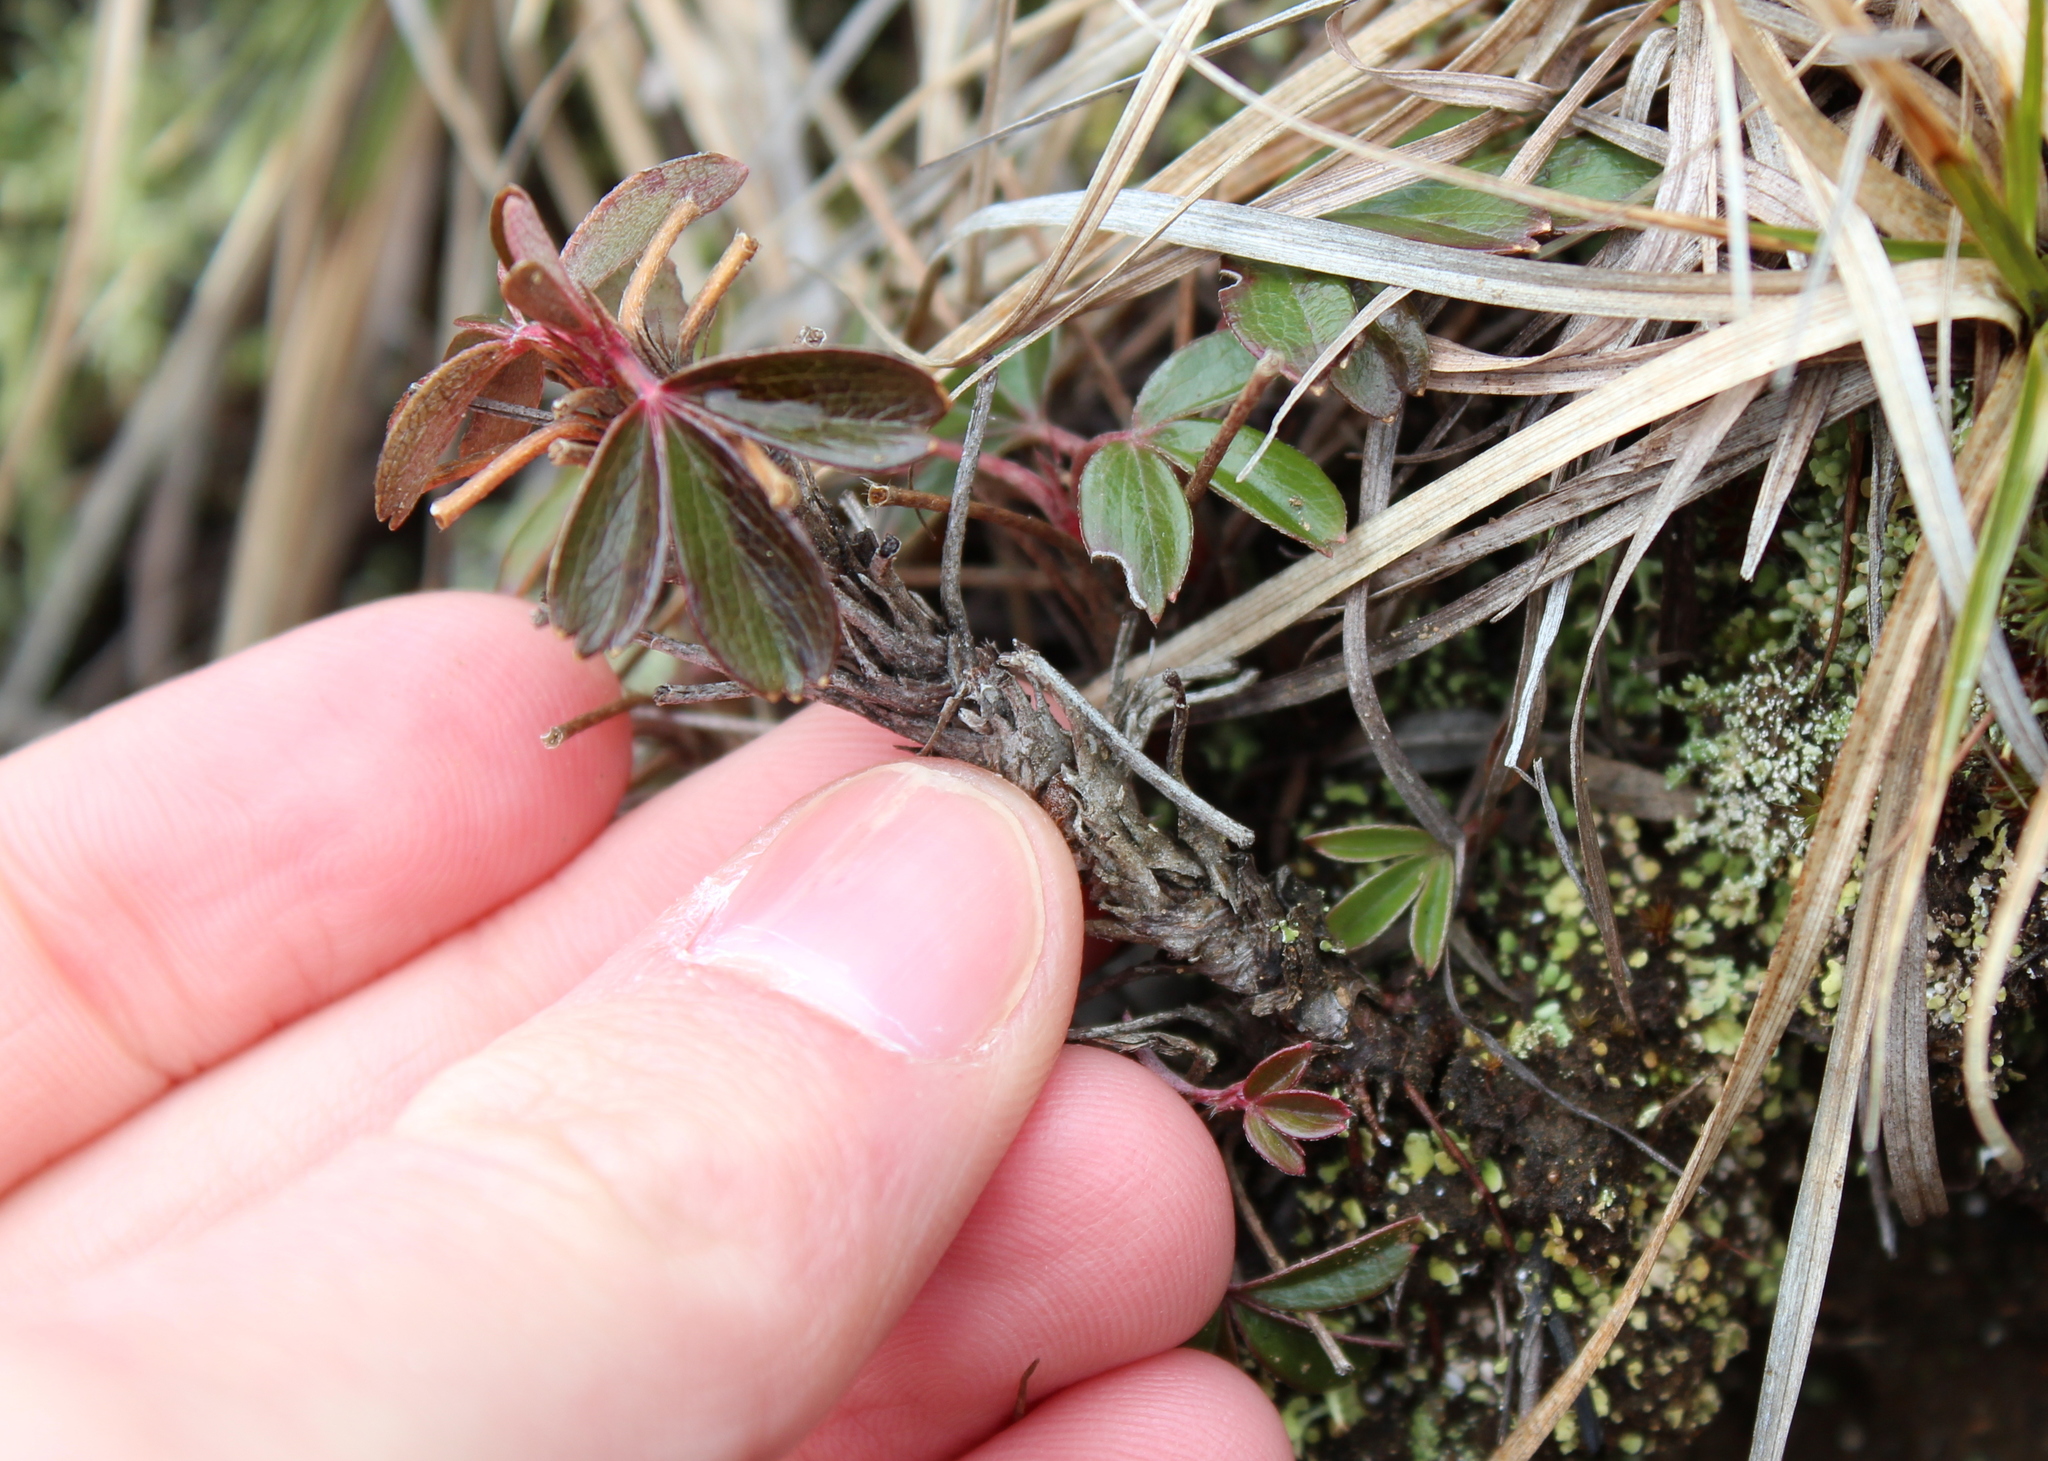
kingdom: Plantae
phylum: Tracheophyta
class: Magnoliopsida
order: Rosales
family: Rosaceae
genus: Sibbaldia
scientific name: Sibbaldia tridentata
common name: Three-toothed cinquefoil
